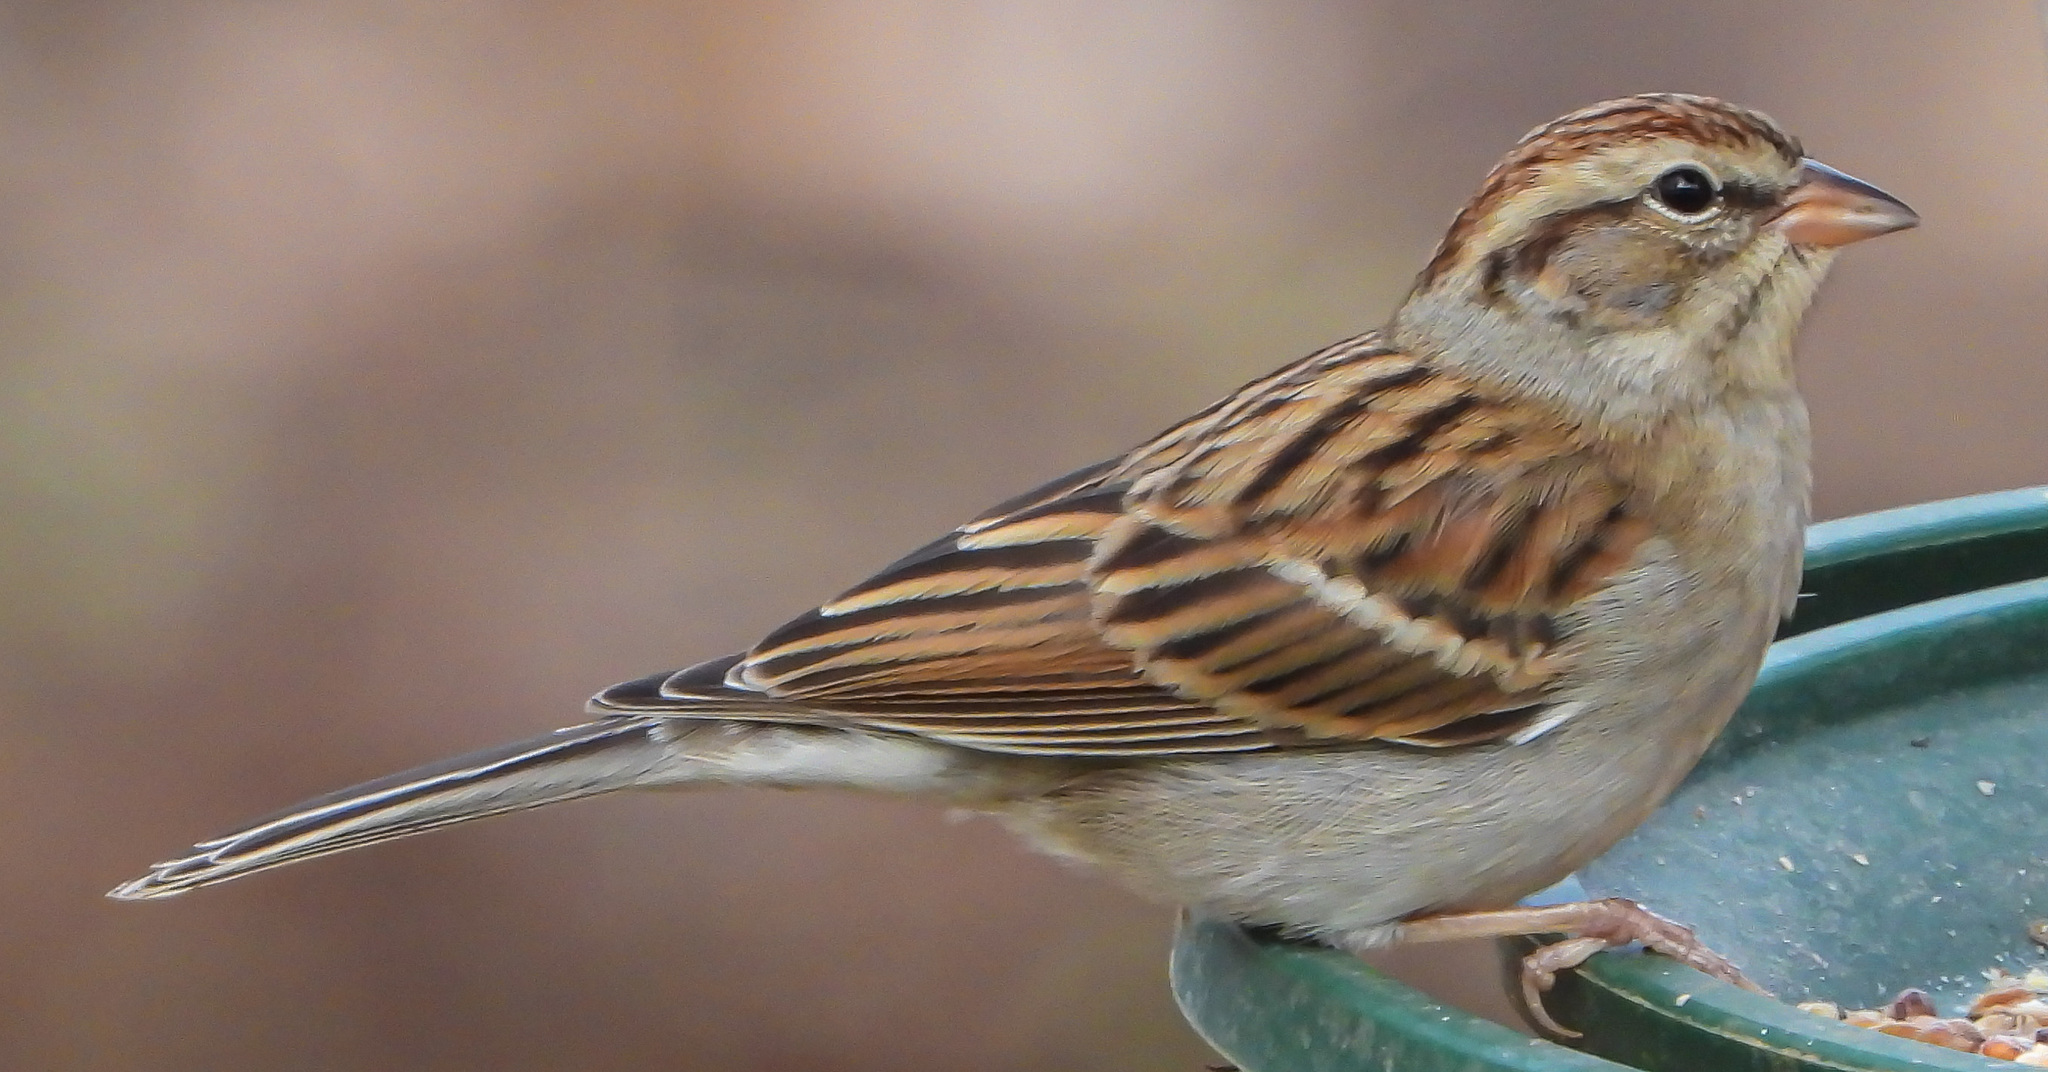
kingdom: Animalia
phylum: Chordata
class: Aves
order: Passeriformes
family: Passerellidae
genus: Spizella
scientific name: Spizella passerina
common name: Chipping sparrow
